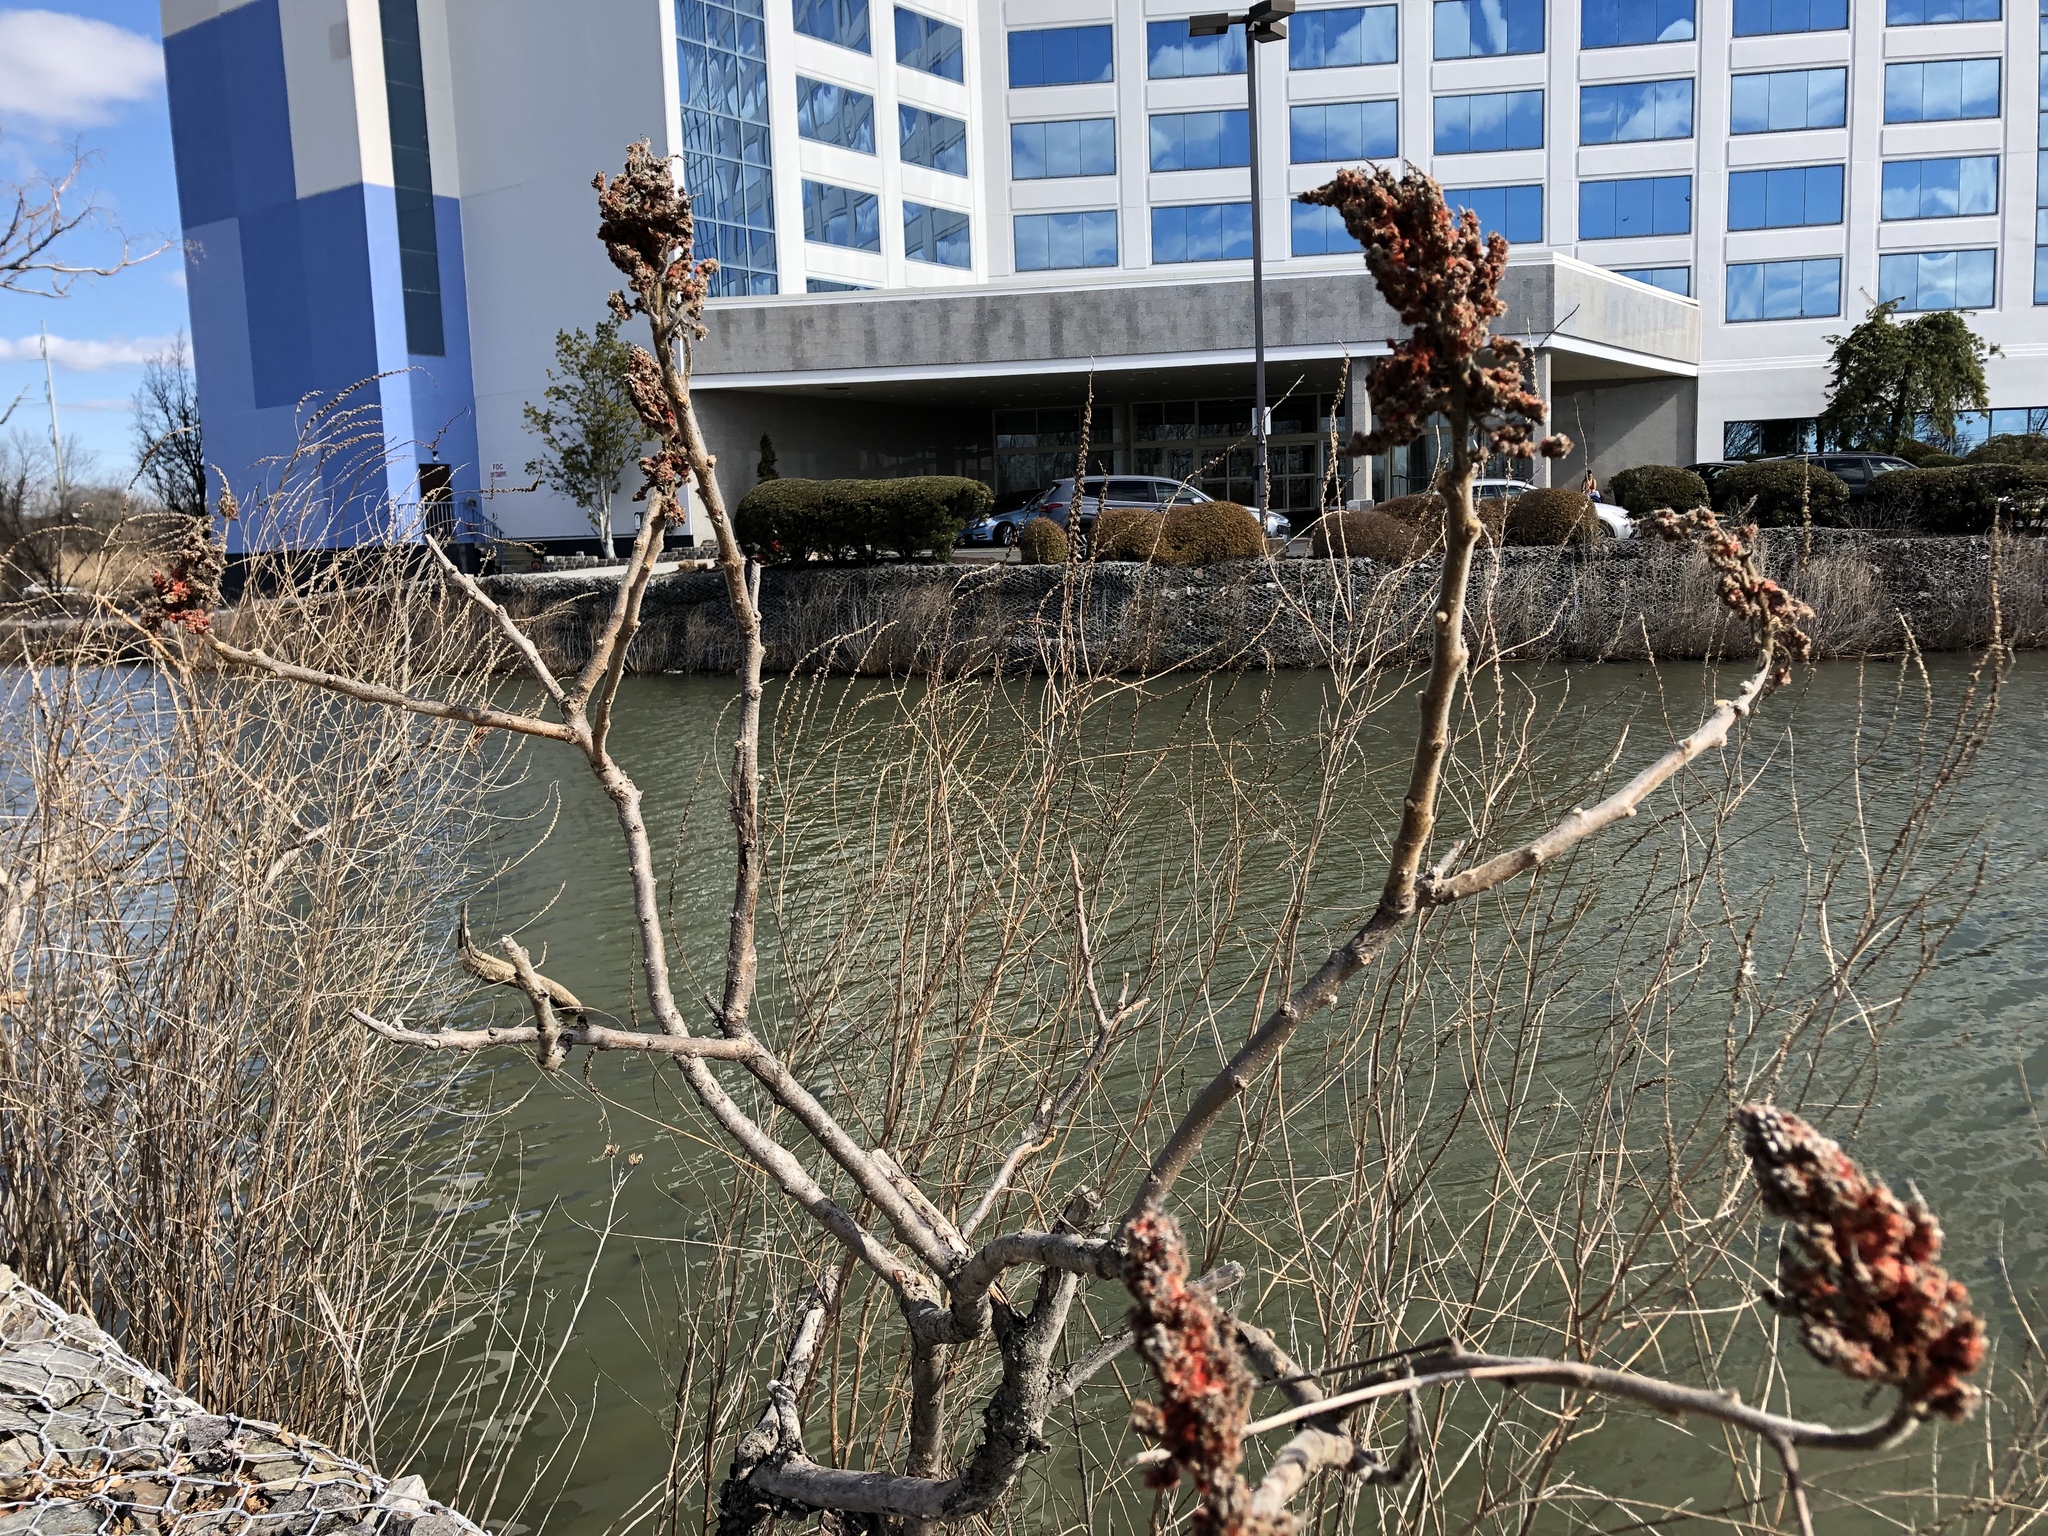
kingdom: Plantae
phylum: Tracheophyta
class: Magnoliopsida
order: Sapindales
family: Anacardiaceae
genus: Rhus
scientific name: Rhus typhina
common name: Staghorn sumac
